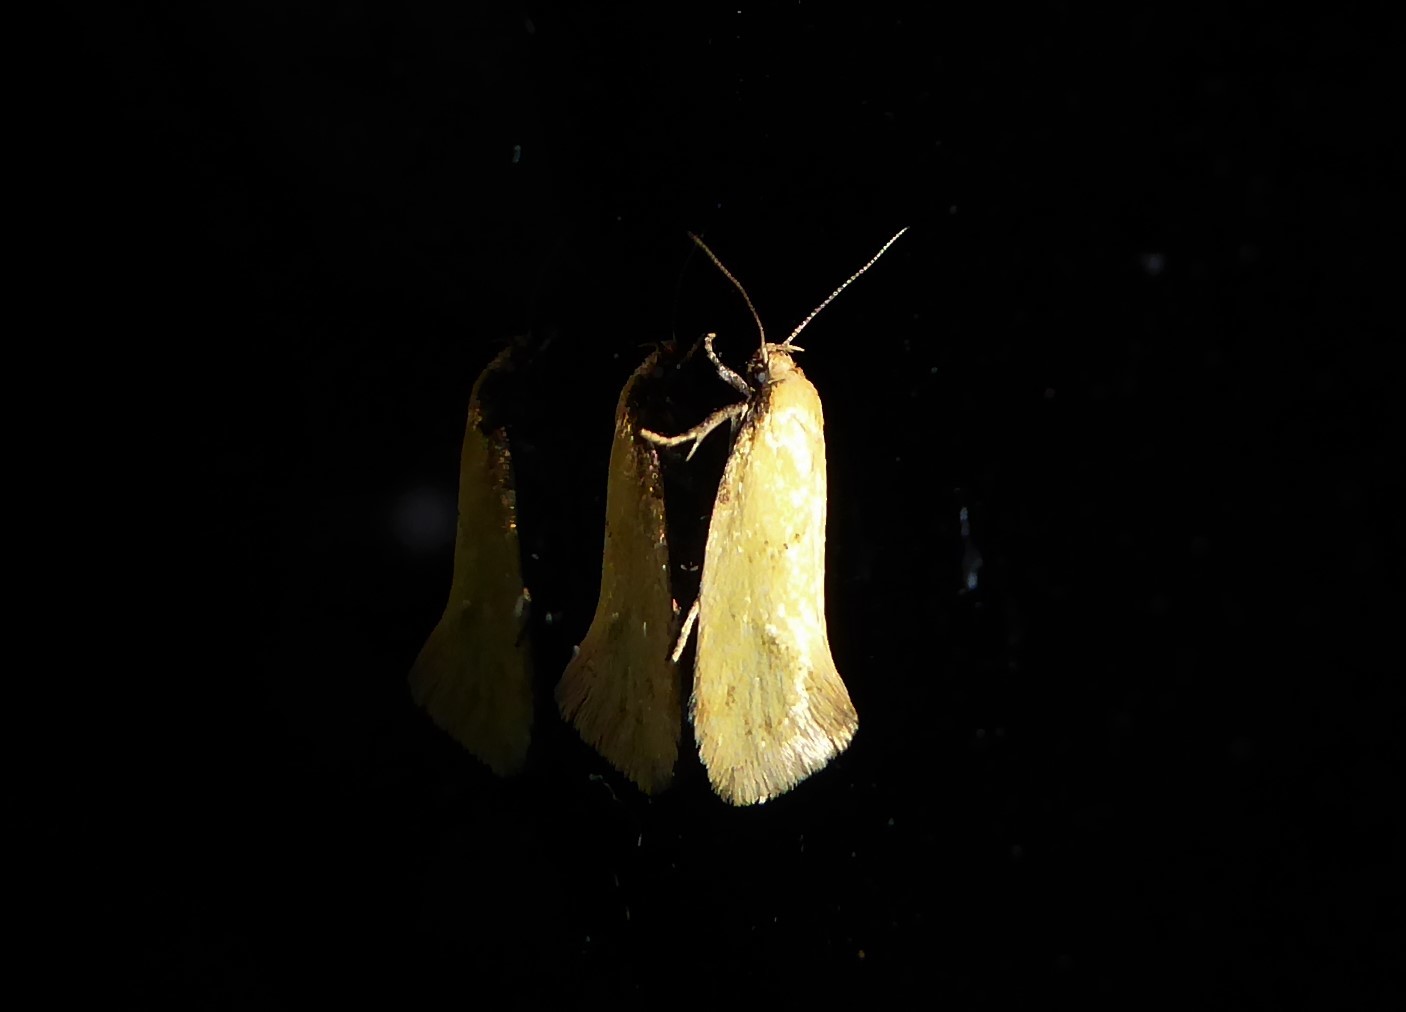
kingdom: Animalia
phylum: Arthropoda
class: Insecta
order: Lepidoptera
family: Oecophoridae
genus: Tingena
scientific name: Tingena actinias
